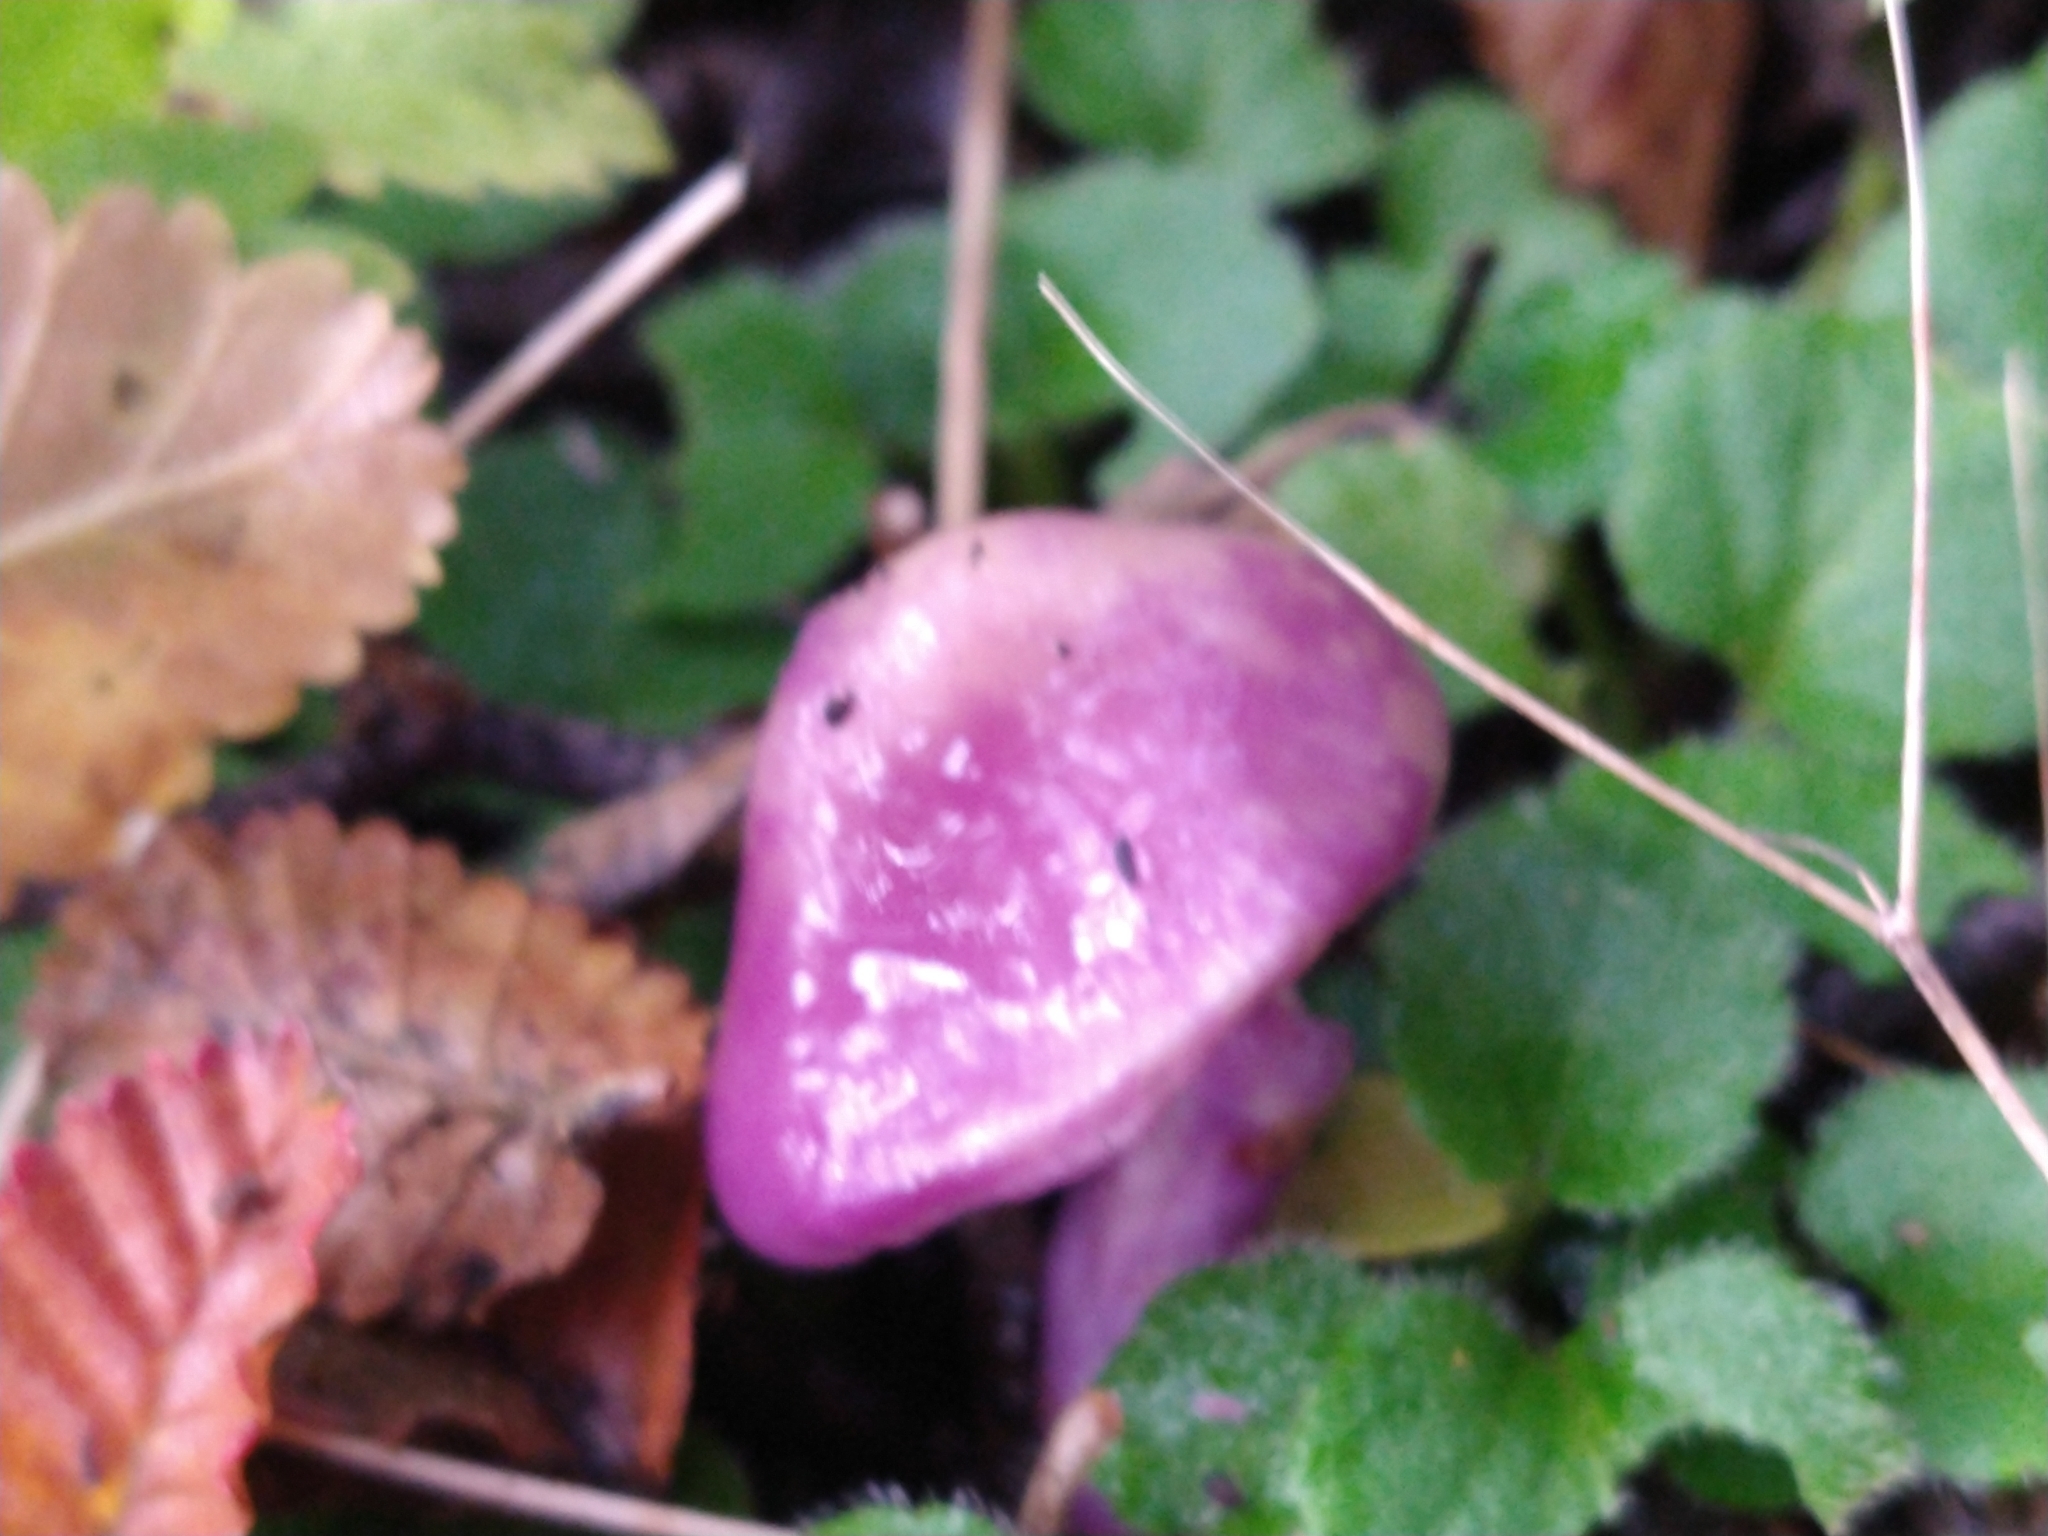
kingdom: Fungi
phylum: Basidiomycota
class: Agaricomycetes
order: Agaricales
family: Cortinariaceae
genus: Cortinarius
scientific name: Cortinarius magellanicus
